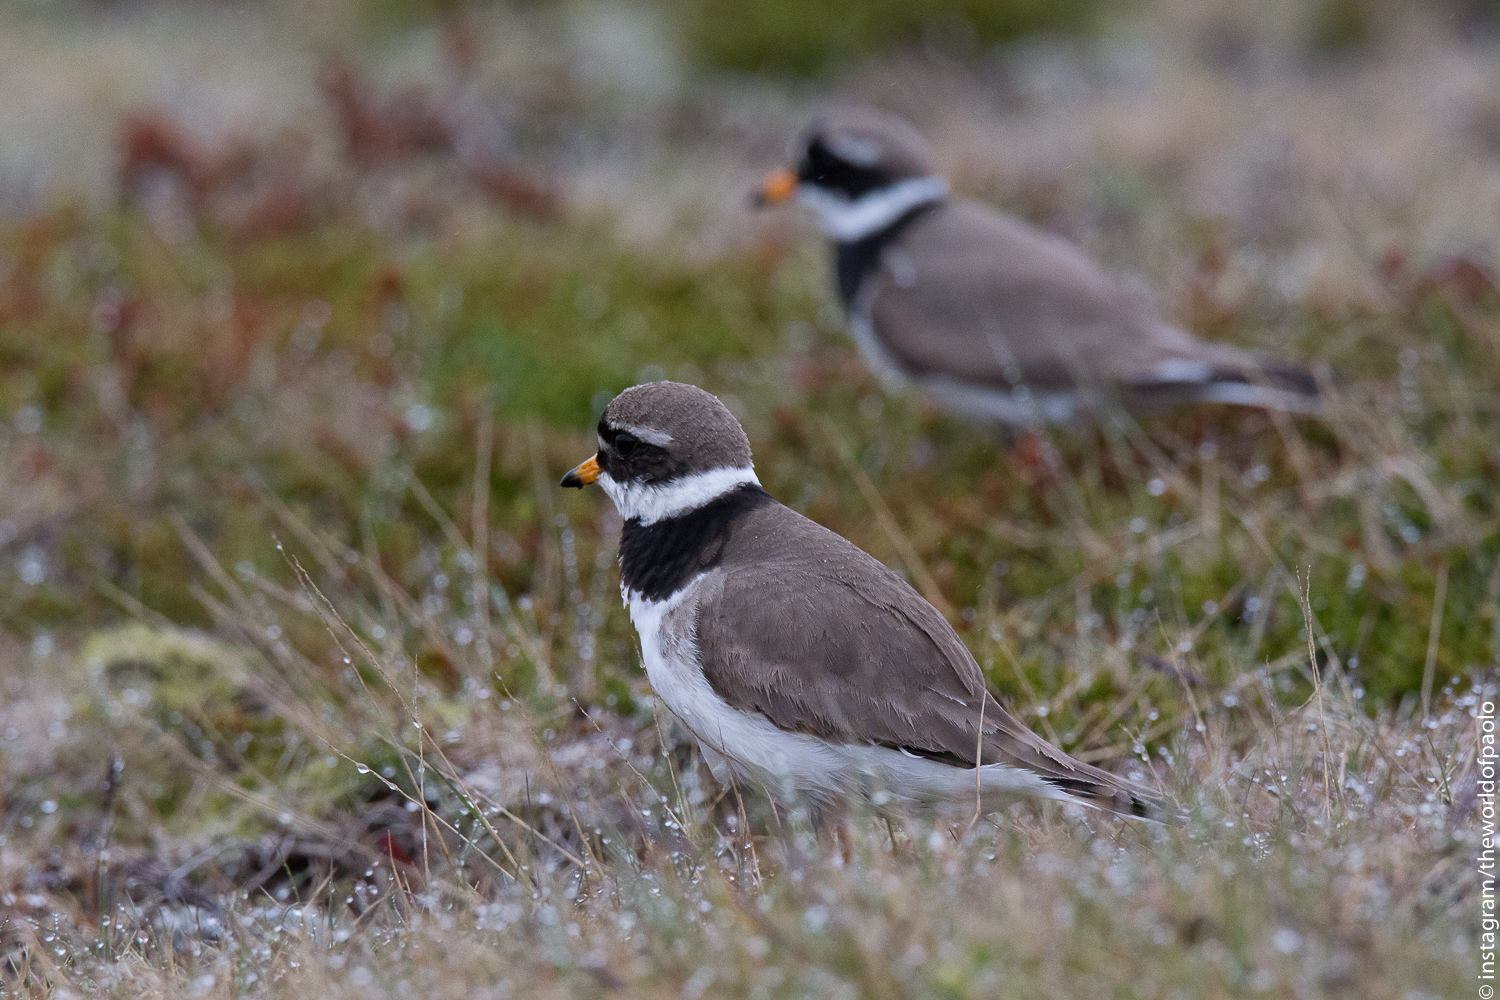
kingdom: Animalia
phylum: Chordata
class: Aves
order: Charadriiformes
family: Charadriidae
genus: Charadrius
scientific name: Charadrius hiaticula
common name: Common ringed plover
